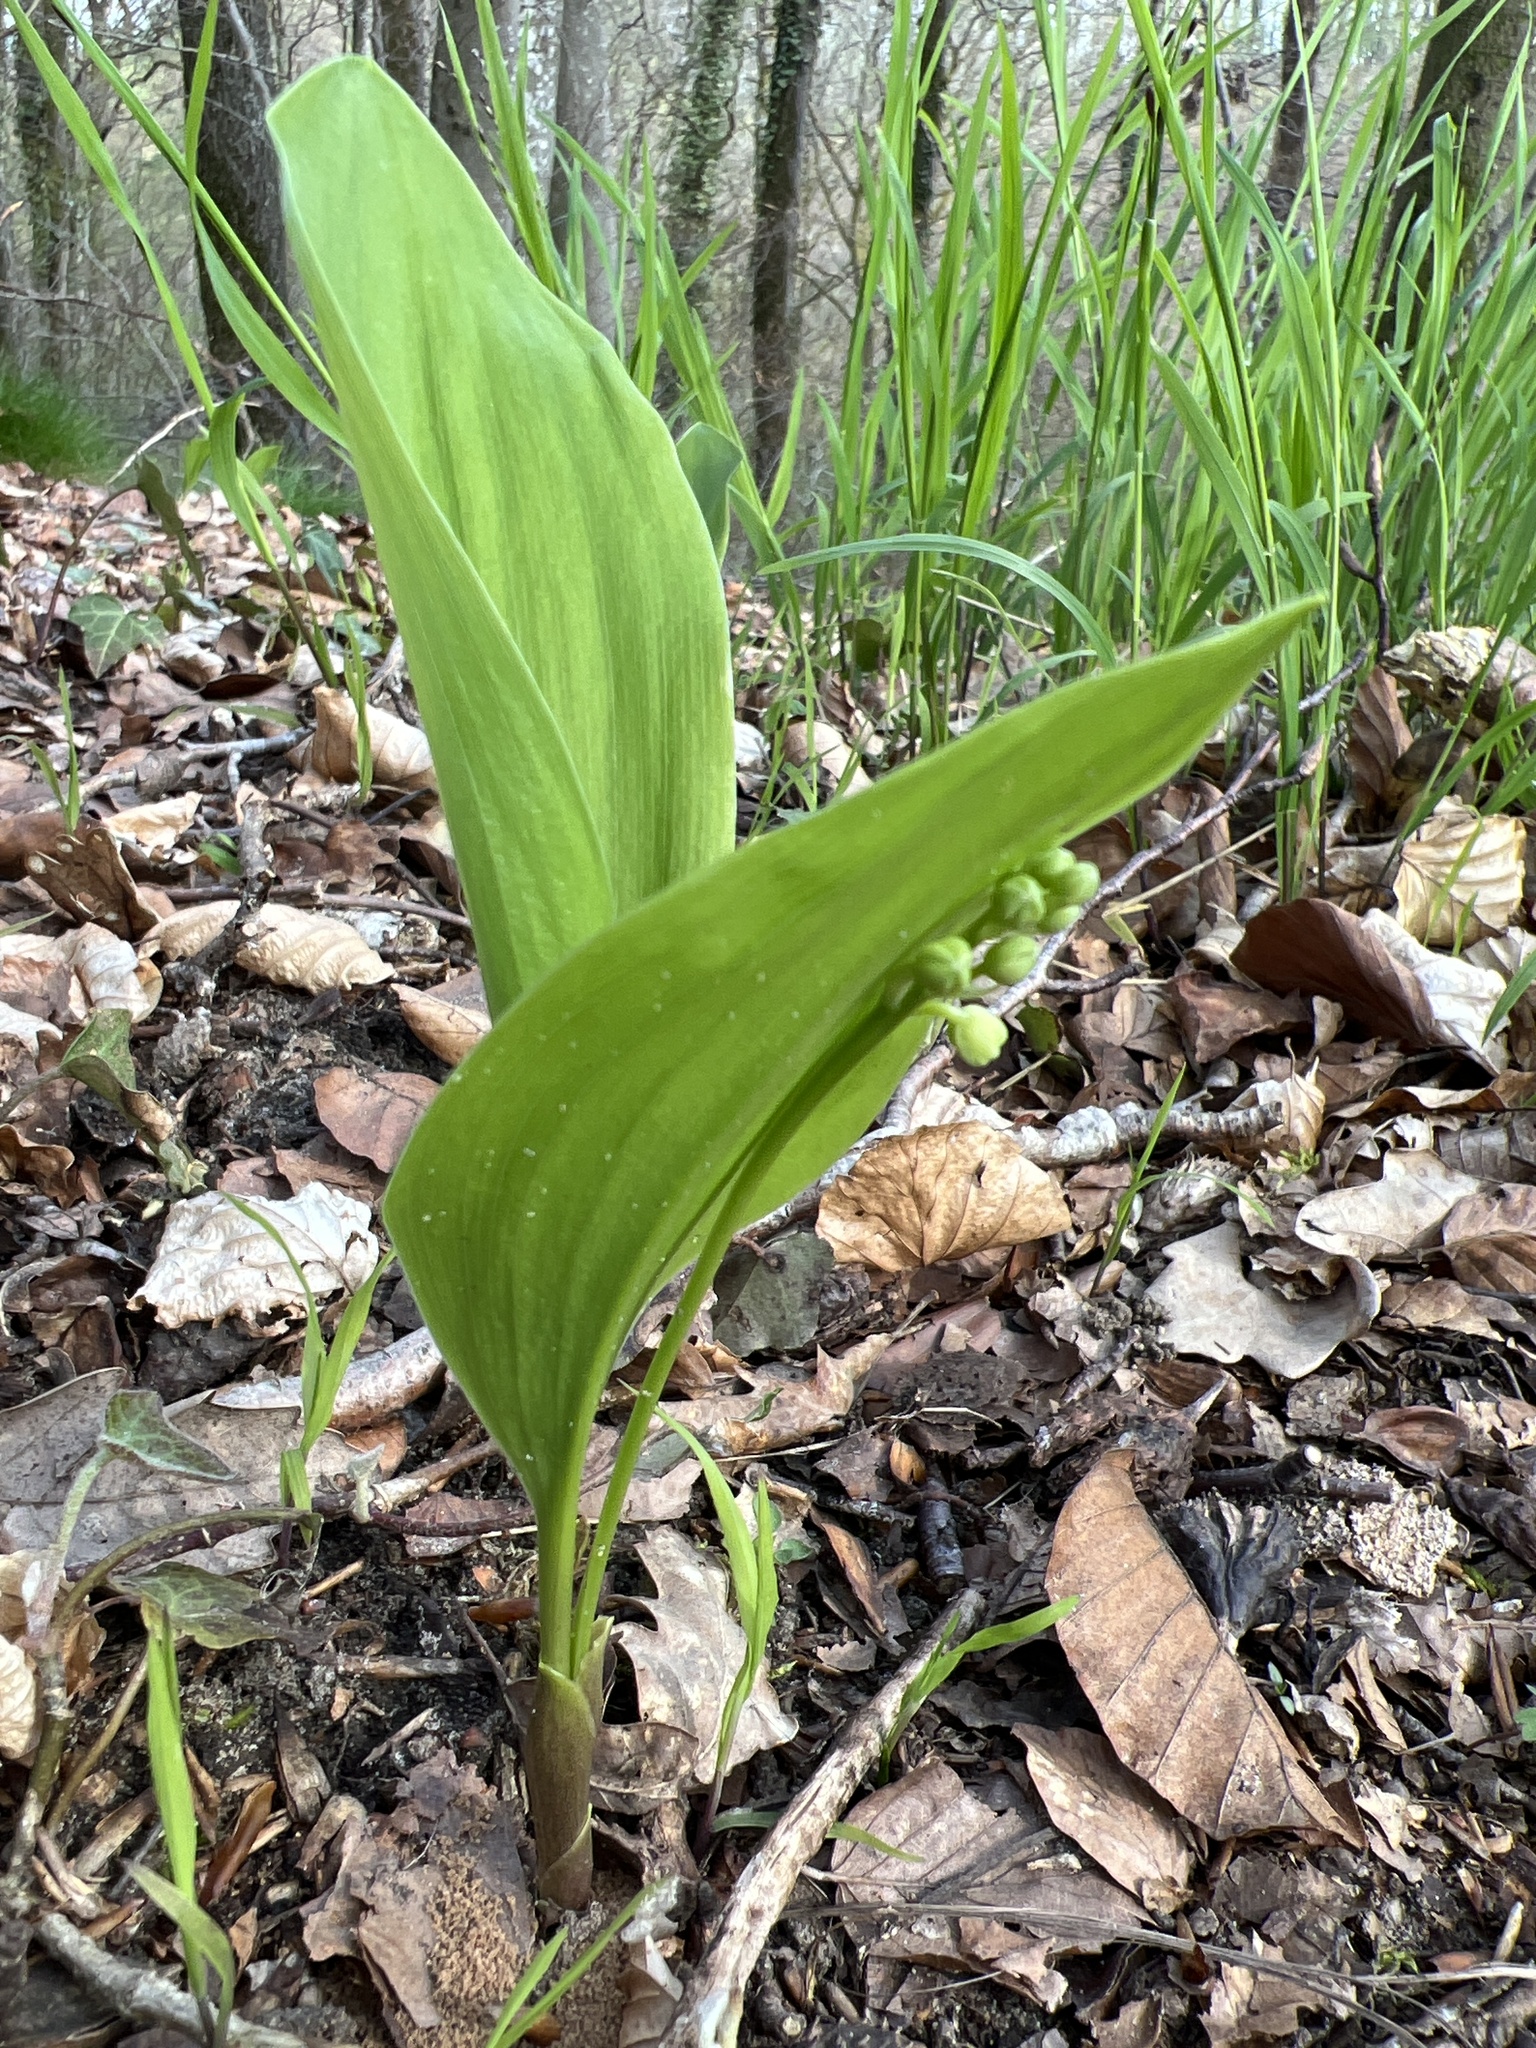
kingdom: Plantae
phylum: Tracheophyta
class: Liliopsida
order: Asparagales
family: Asparagaceae
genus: Convallaria
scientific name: Convallaria majalis
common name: Lily-of-the-valley
